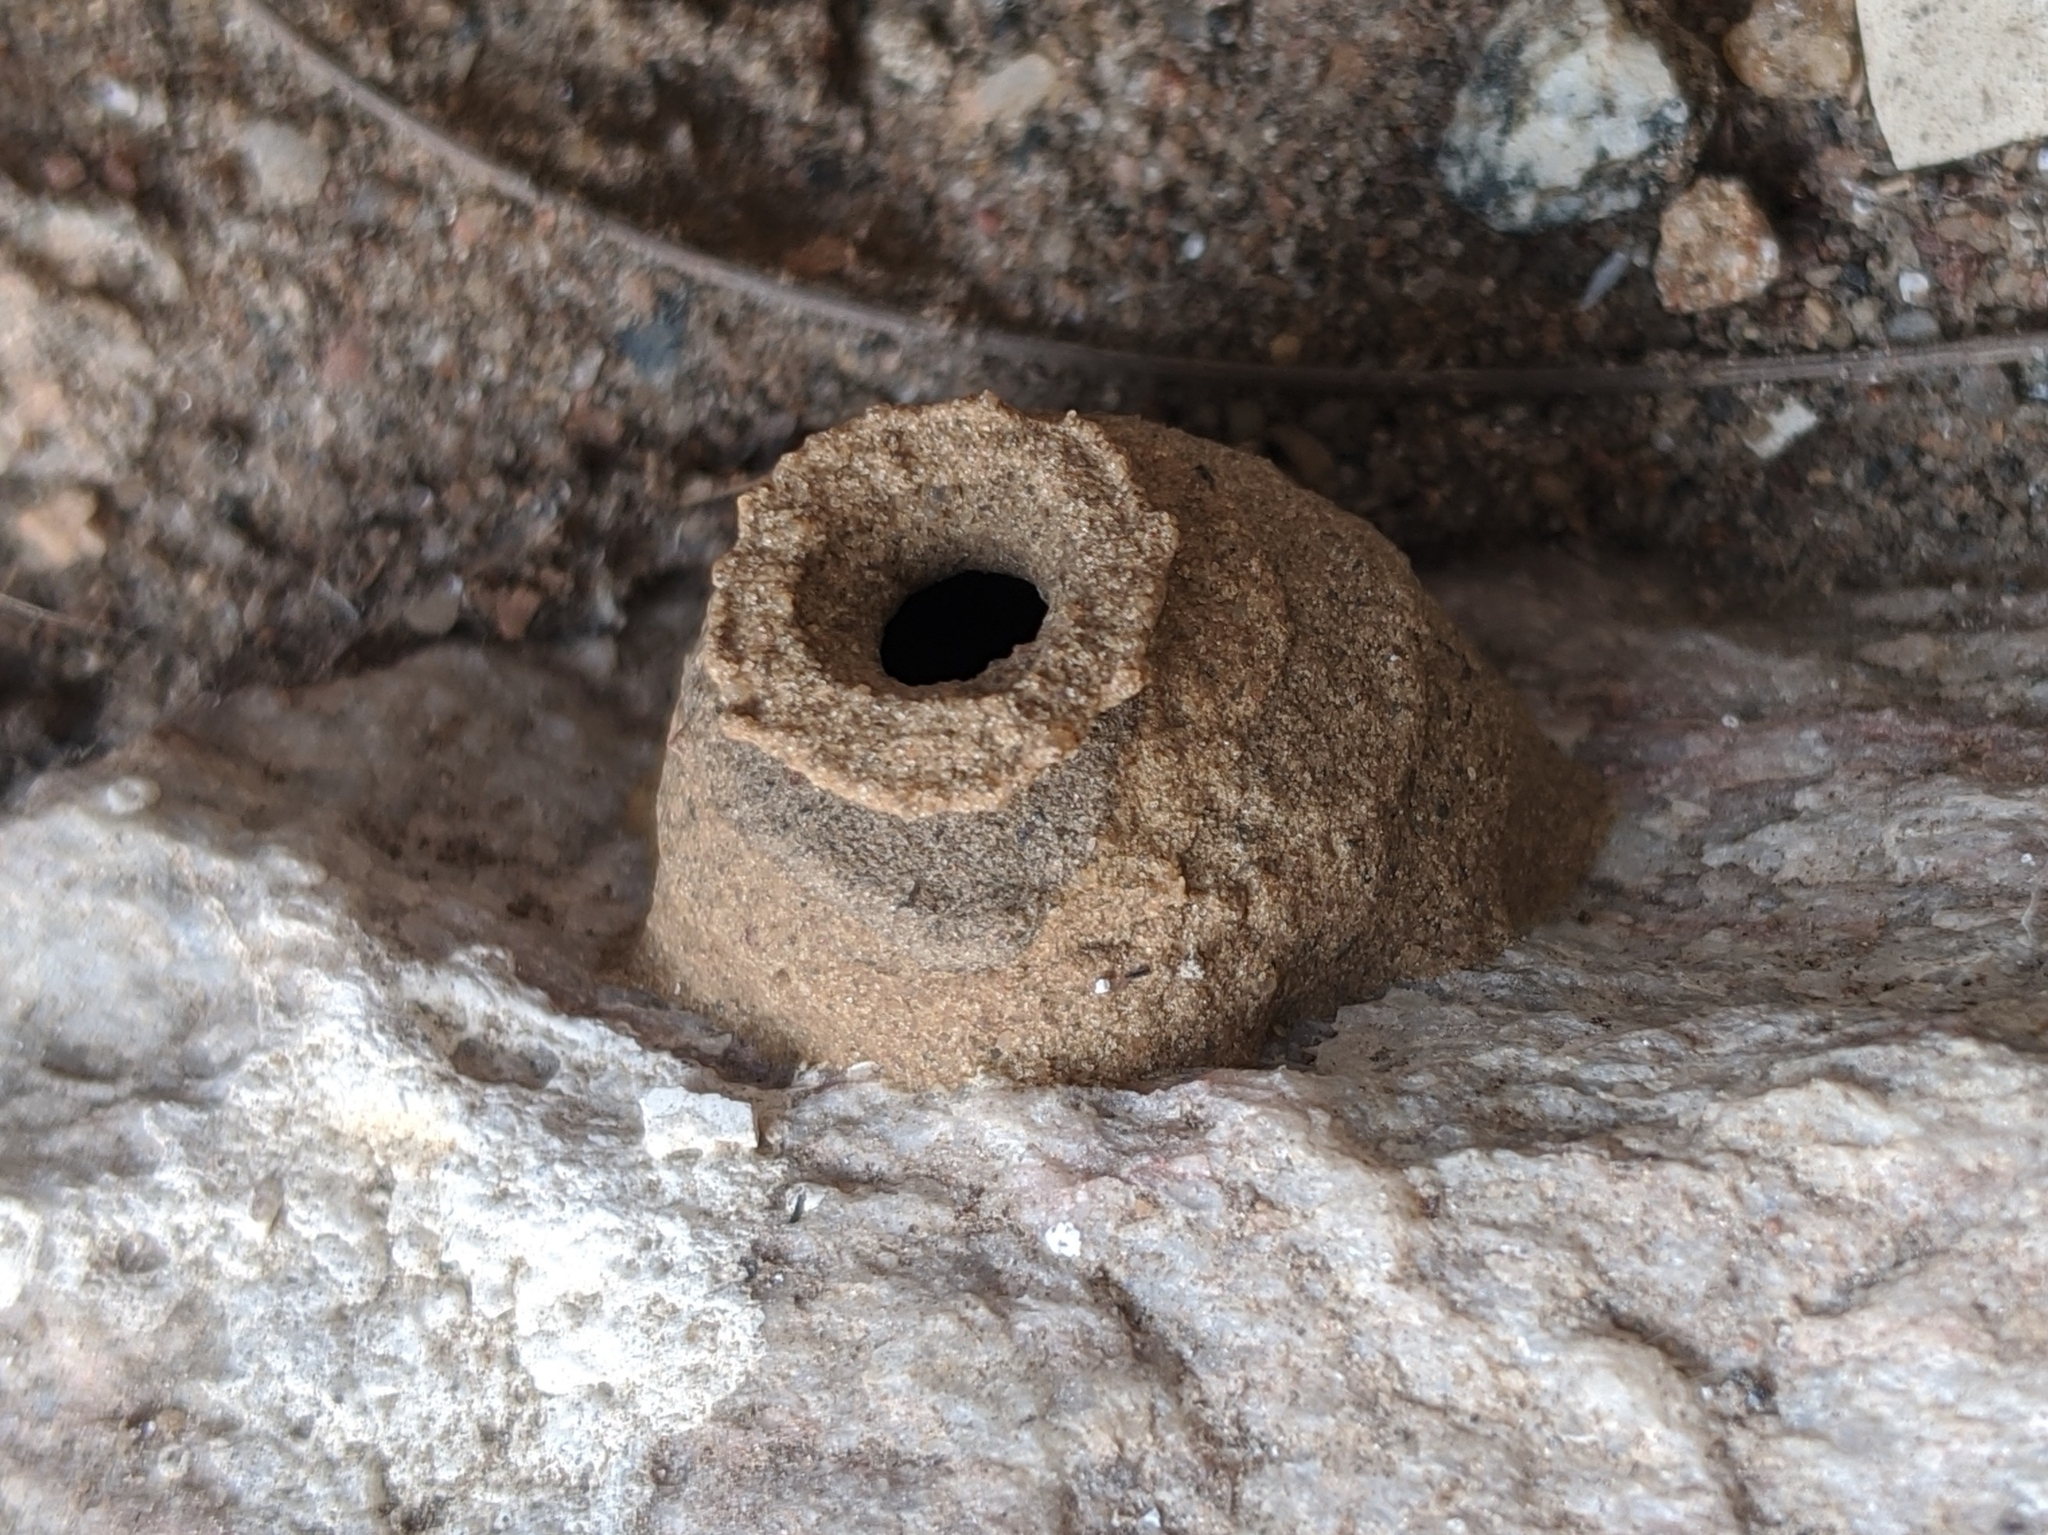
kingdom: Animalia
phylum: Arthropoda
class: Insecta
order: Hymenoptera
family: Eumenidae
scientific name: Eumenidae
